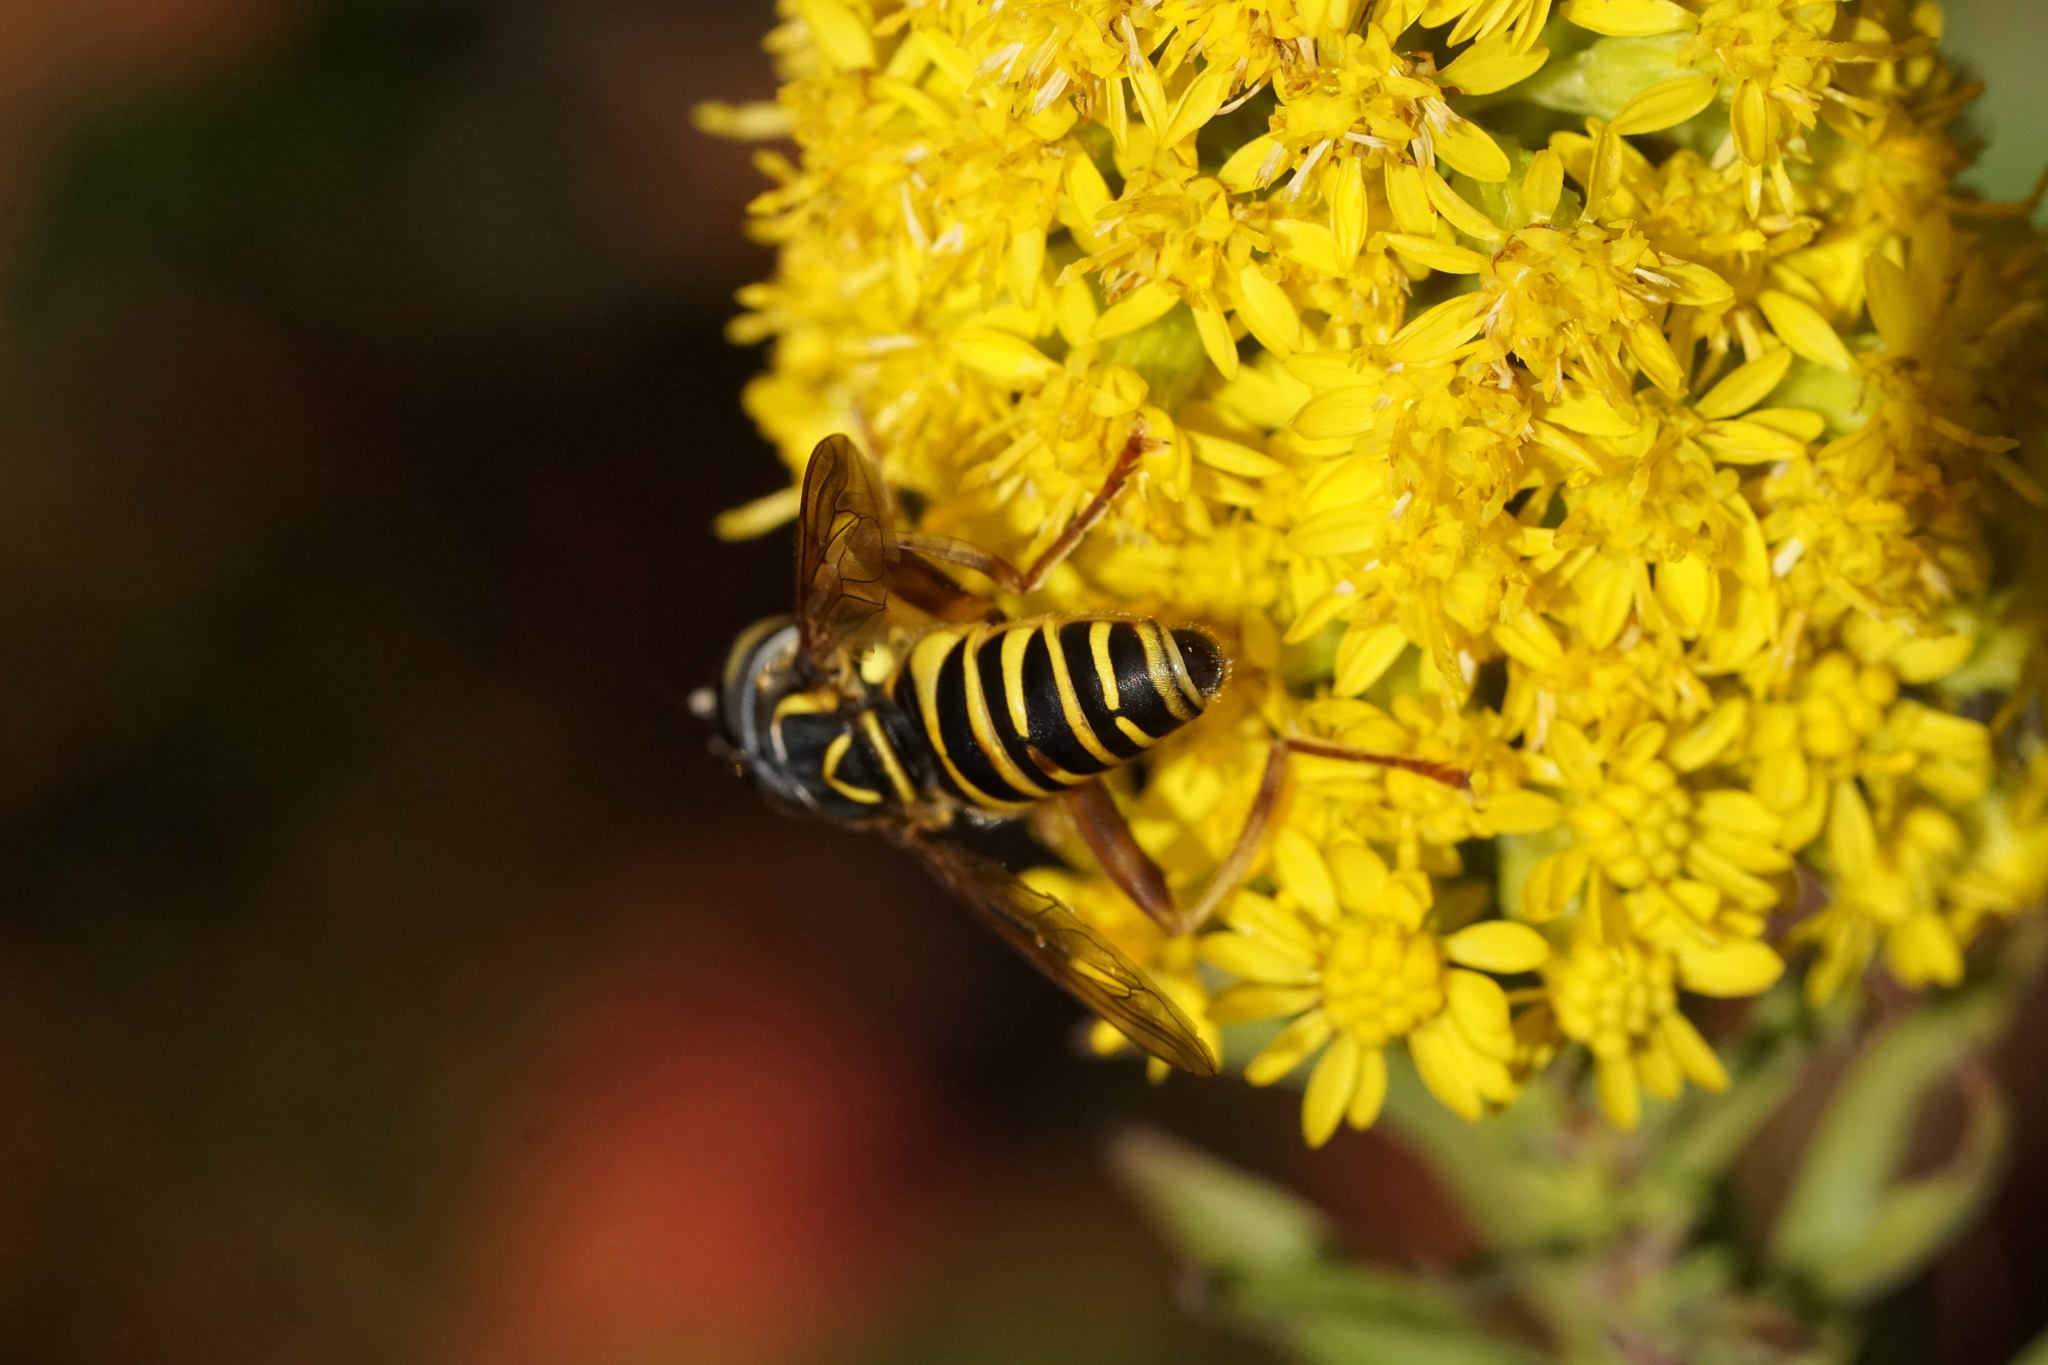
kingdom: Animalia
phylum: Arthropoda
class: Insecta
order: Diptera
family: Syrphidae
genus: Spilomyia
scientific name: Spilomyia longicornis
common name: Eastern hornet fly
